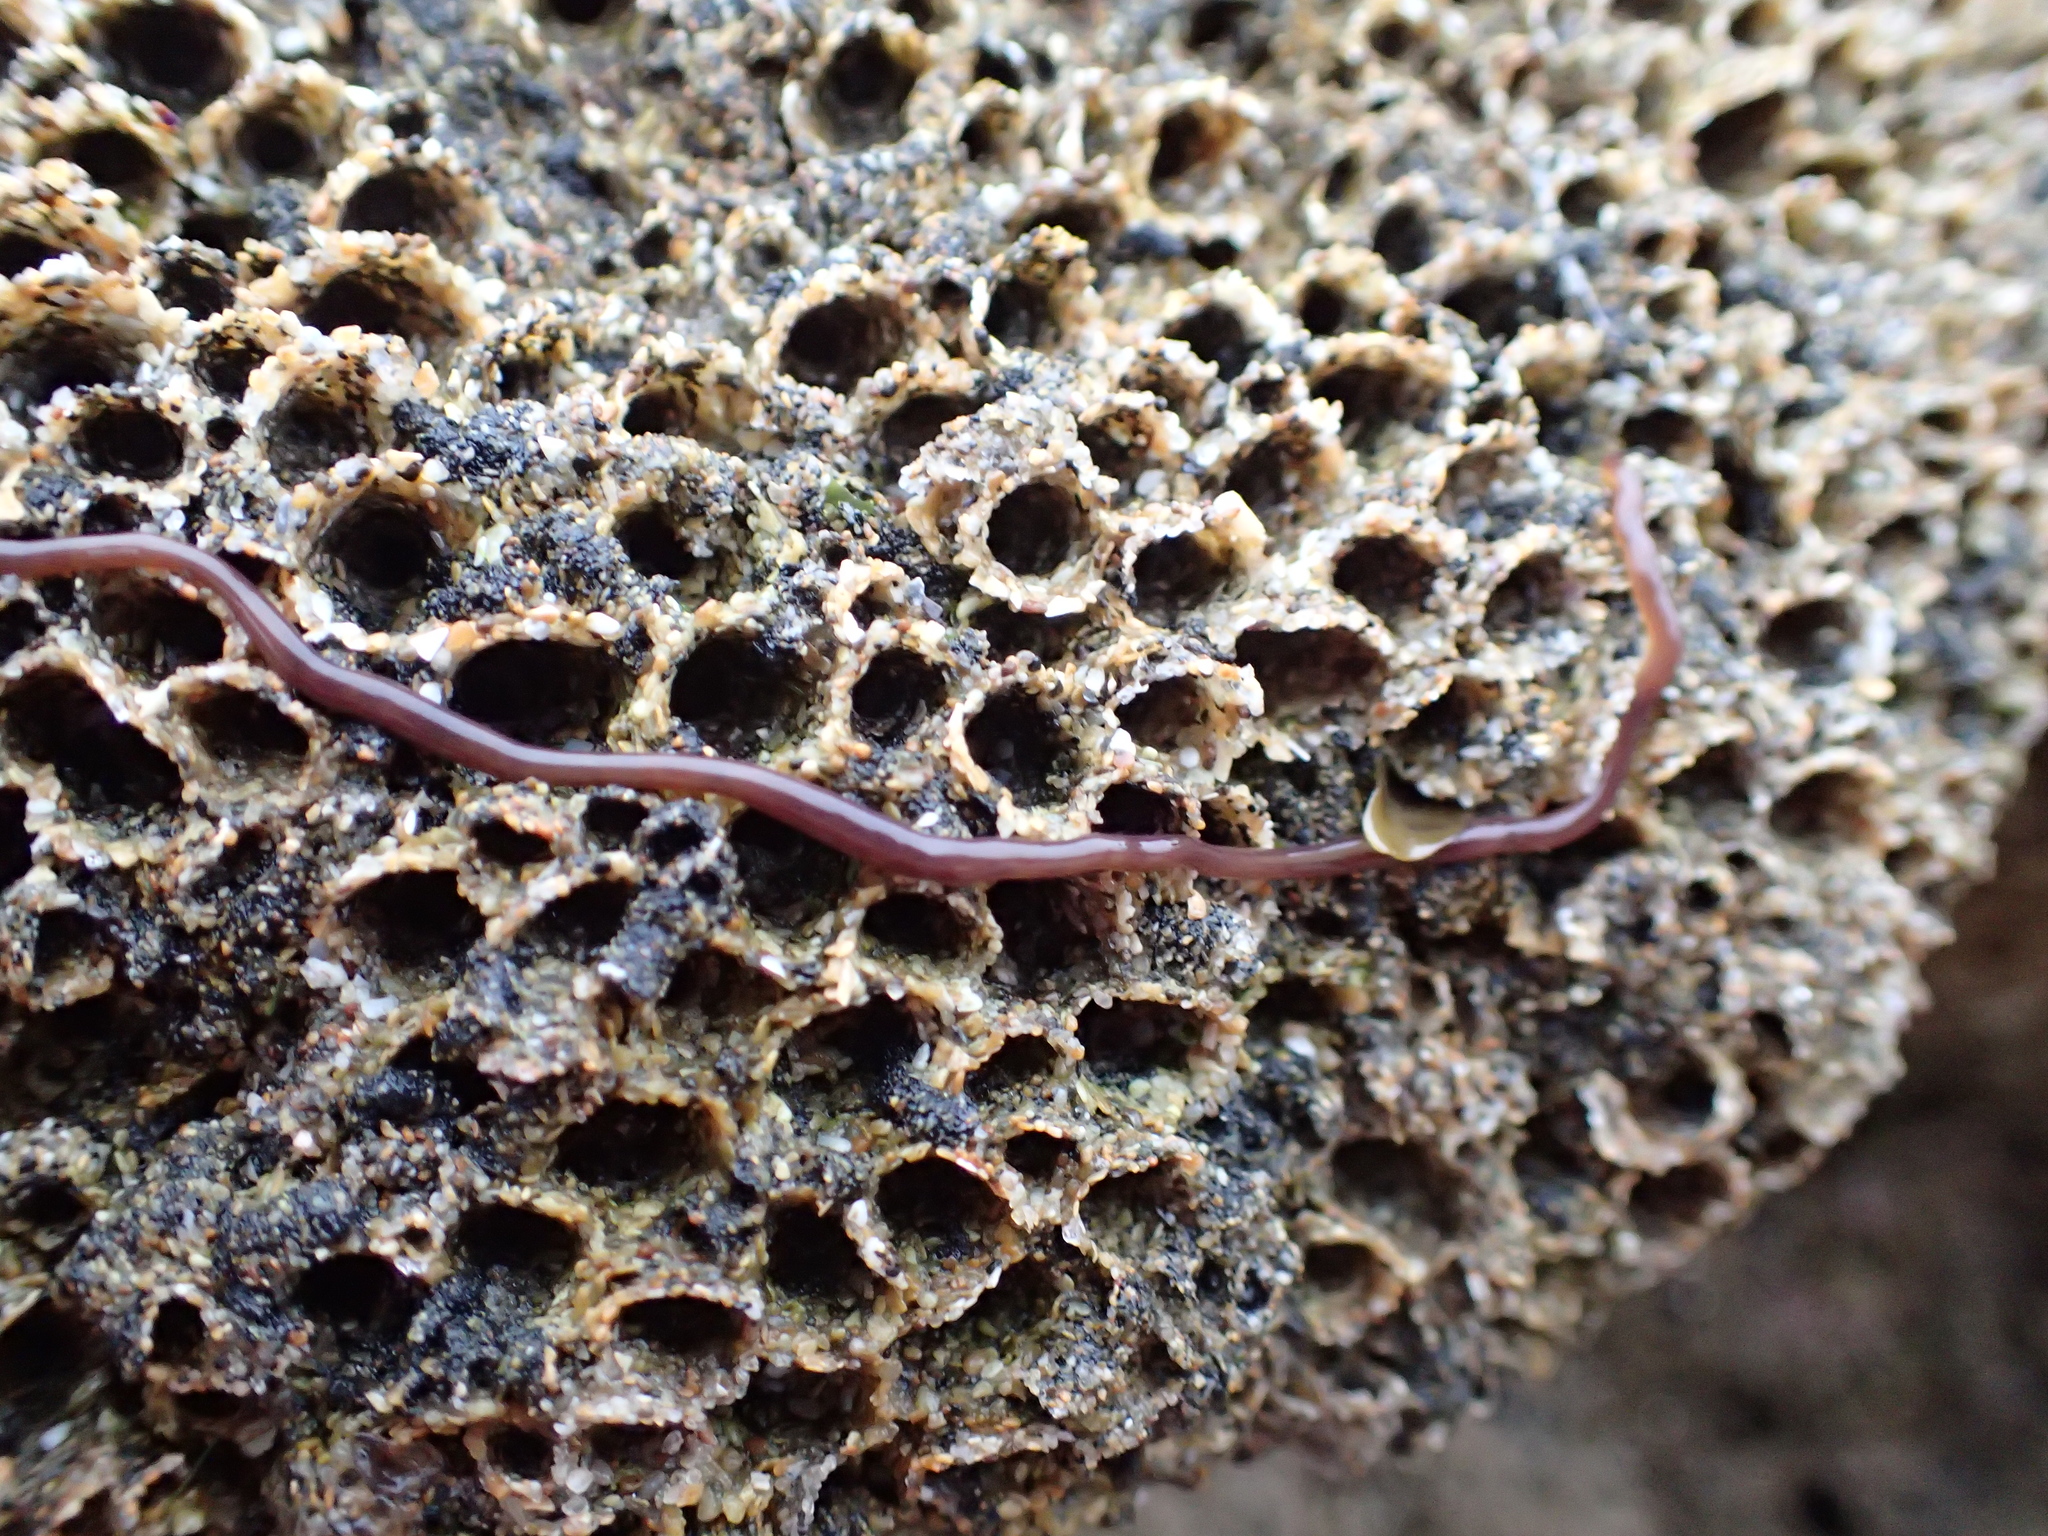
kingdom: Animalia
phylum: Nemertea
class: Hoplonemertea
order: Monostilifera
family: Neesiidae
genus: Paranemertes
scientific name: Paranemertes peregrina
